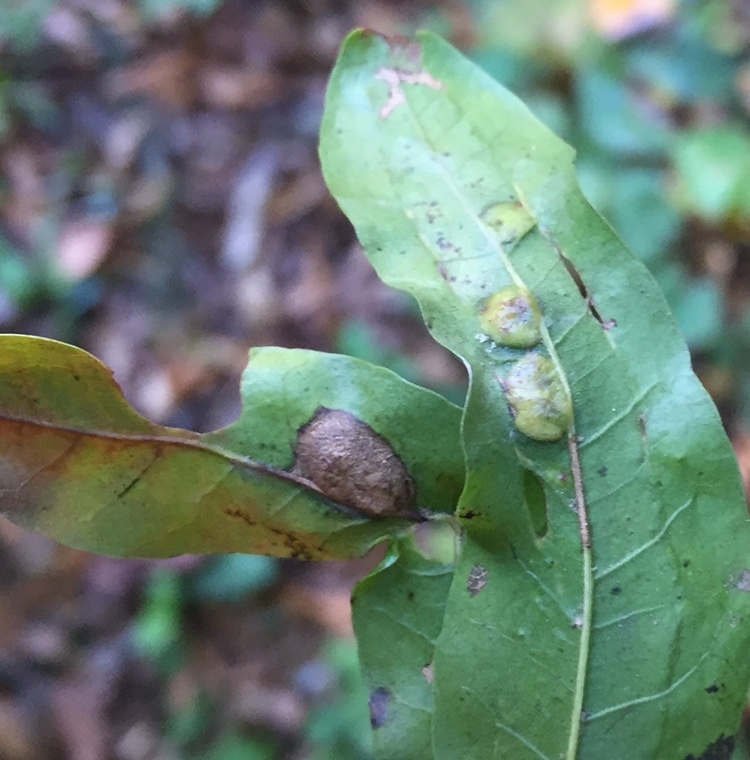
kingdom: Animalia
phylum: Arthropoda
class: Insecta
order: Diptera
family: Cecidomyiidae
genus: Polystepha
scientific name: Polystepha pilulae
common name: Oak leaf gall midge
